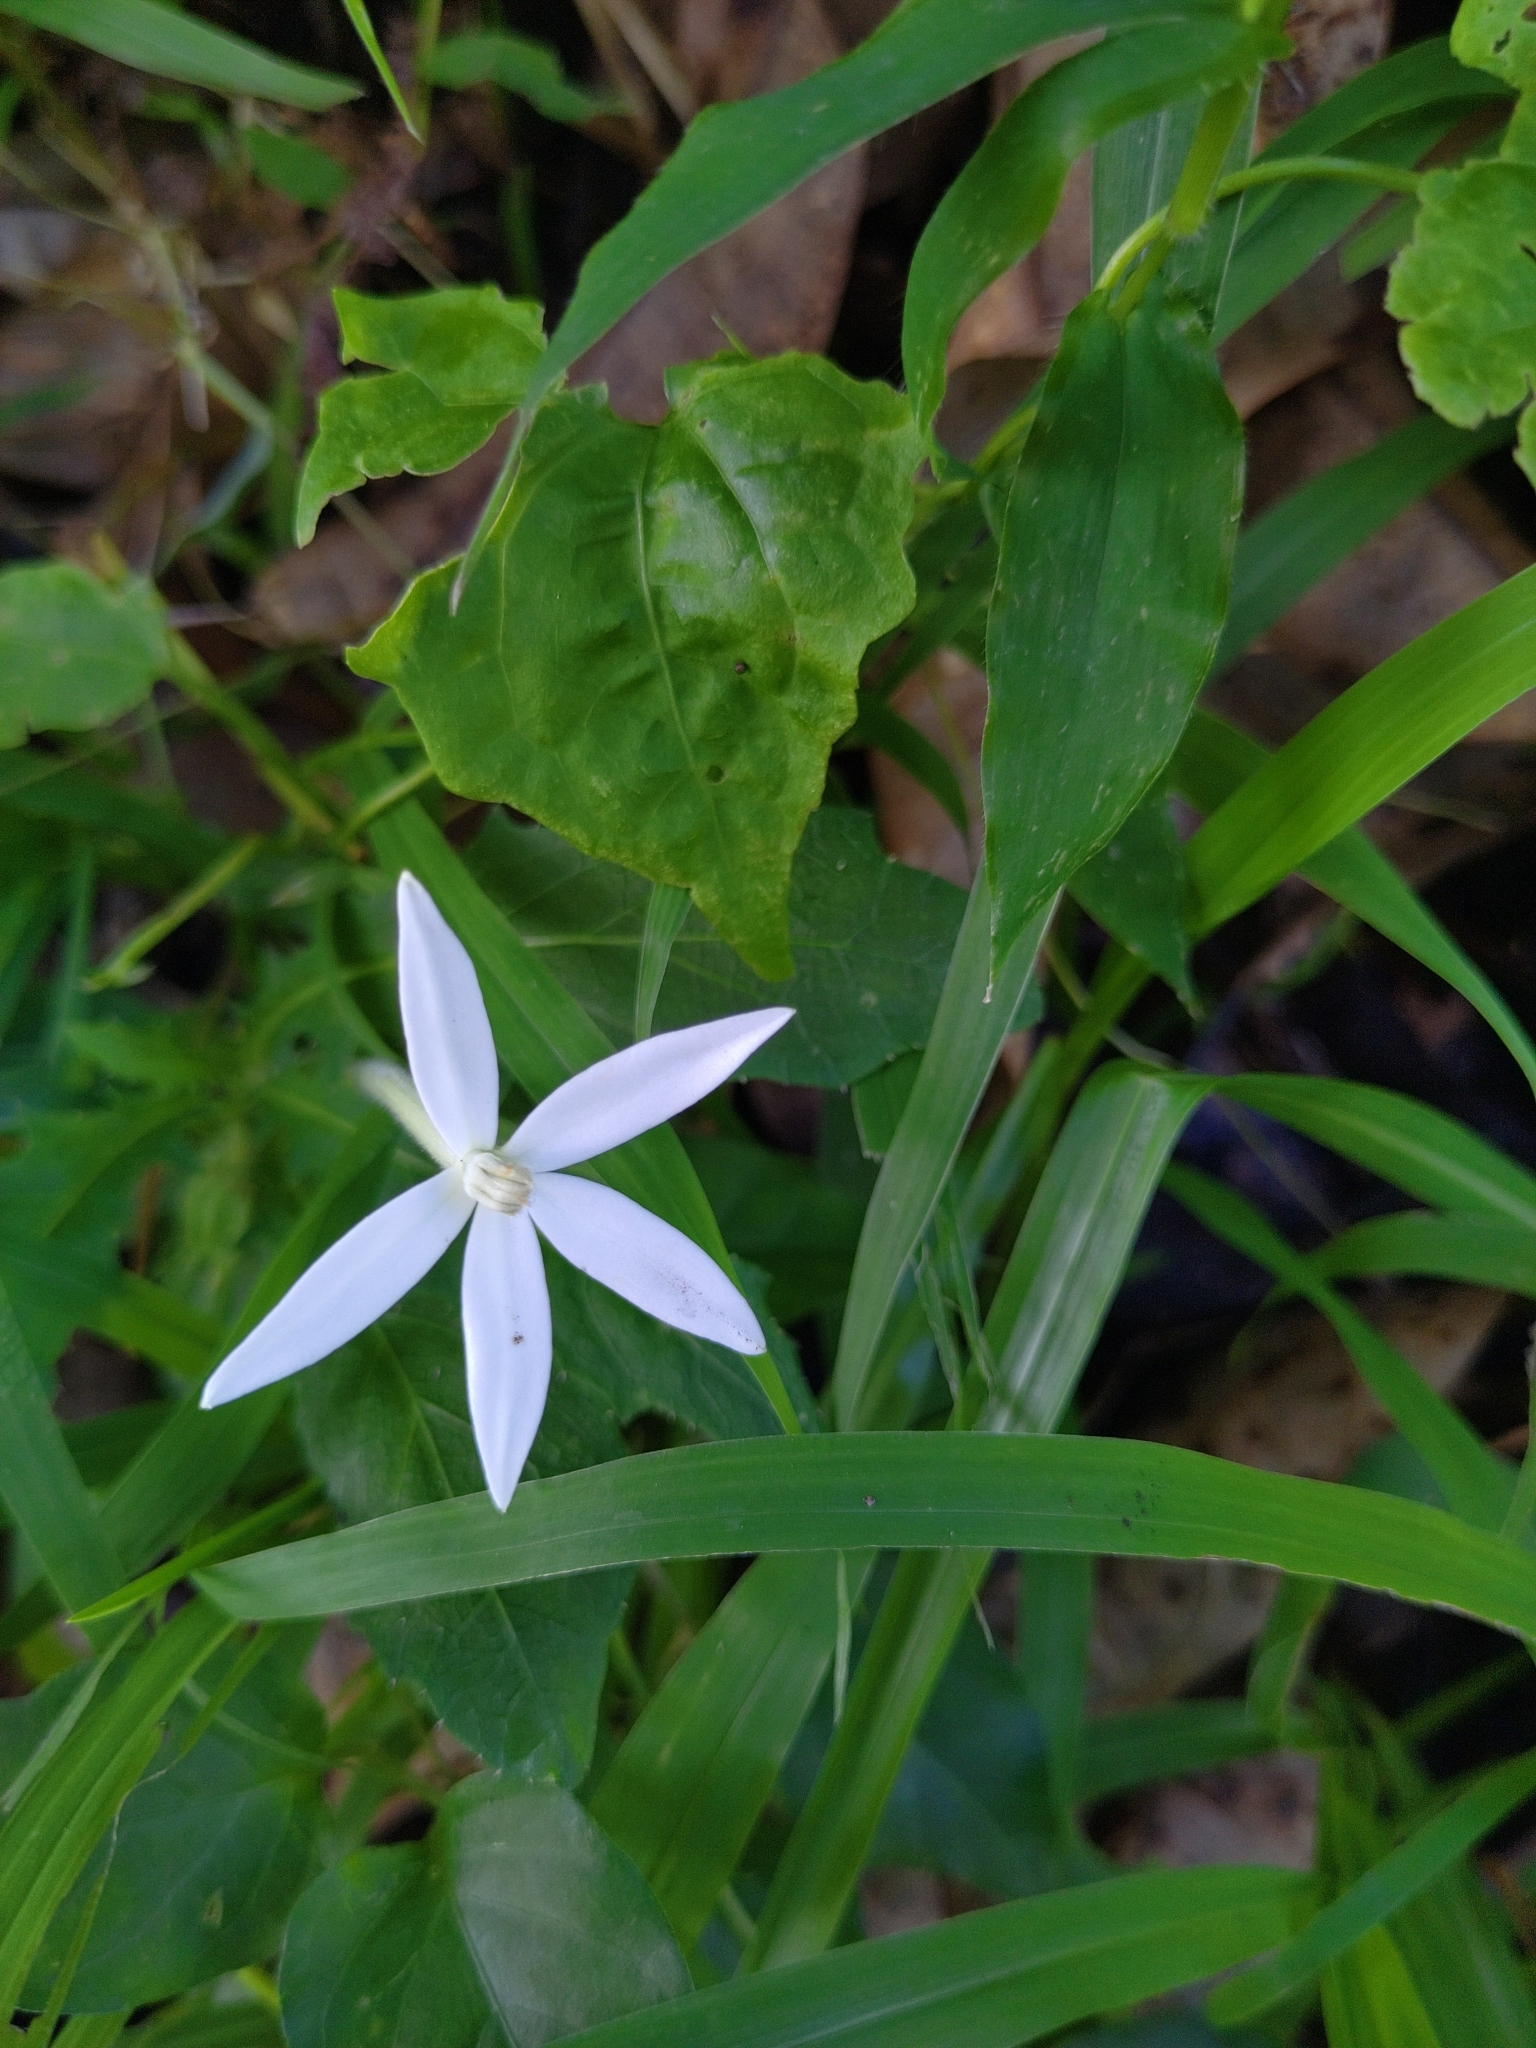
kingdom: Plantae
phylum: Tracheophyta
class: Magnoliopsida
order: Asterales
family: Campanulaceae
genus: Hippobroma
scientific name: Hippobroma longiflora
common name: Madamfate
